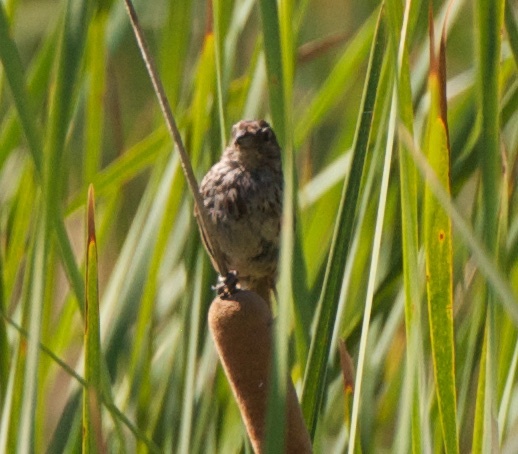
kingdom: Animalia
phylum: Chordata
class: Aves
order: Passeriformes
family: Passerellidae
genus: Melospiza
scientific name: Melospiza melodia
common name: Song sparrow
